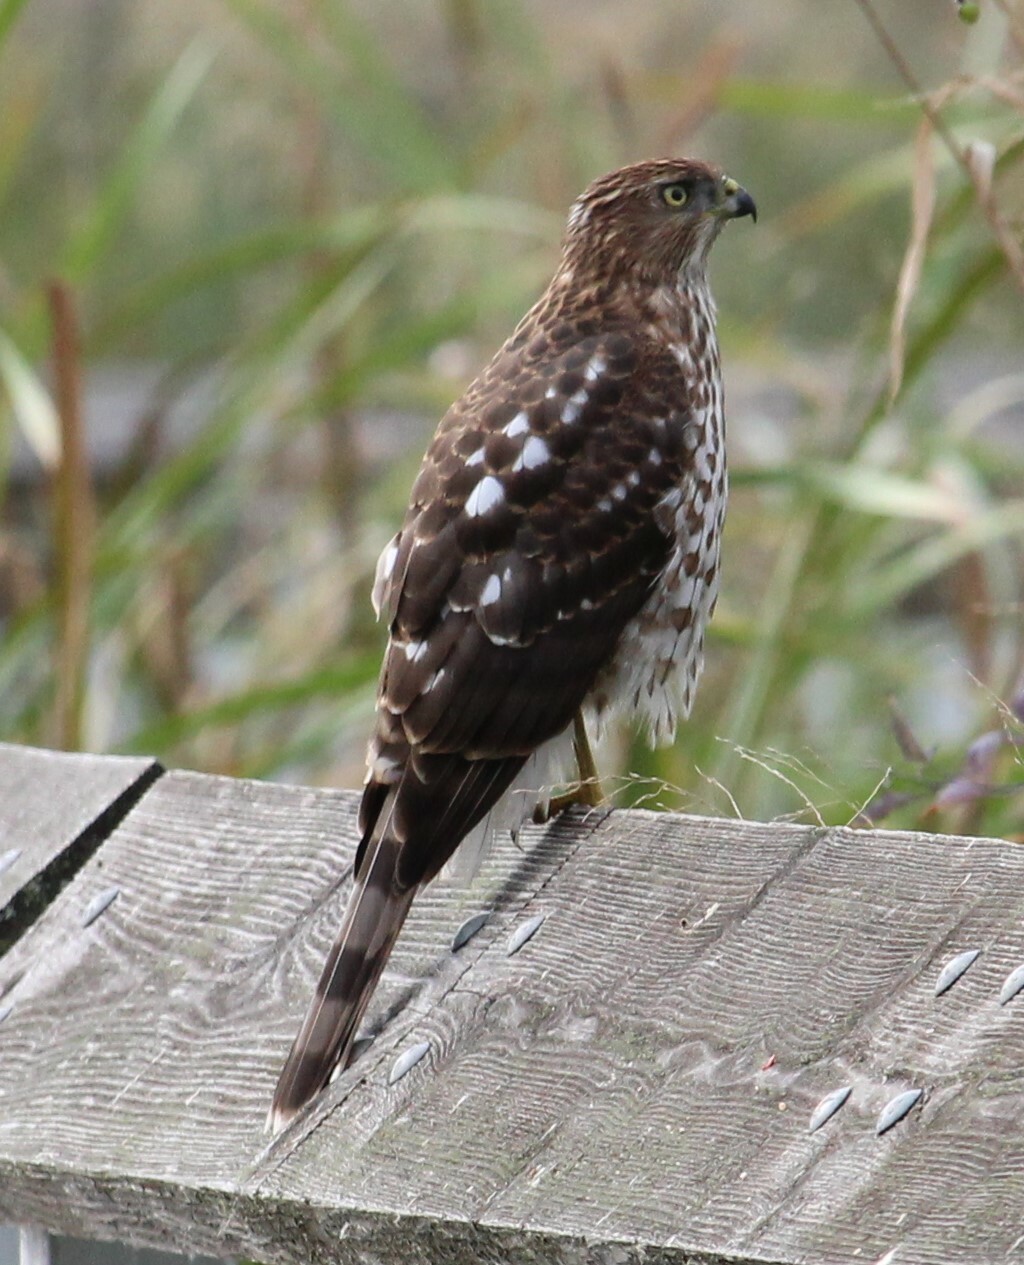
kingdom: Animalia
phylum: Chordata
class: Aves
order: Accipitriformes
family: Accipitridae
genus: Accipiter
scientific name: Accipiter cooperii
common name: Cooper's hawk
